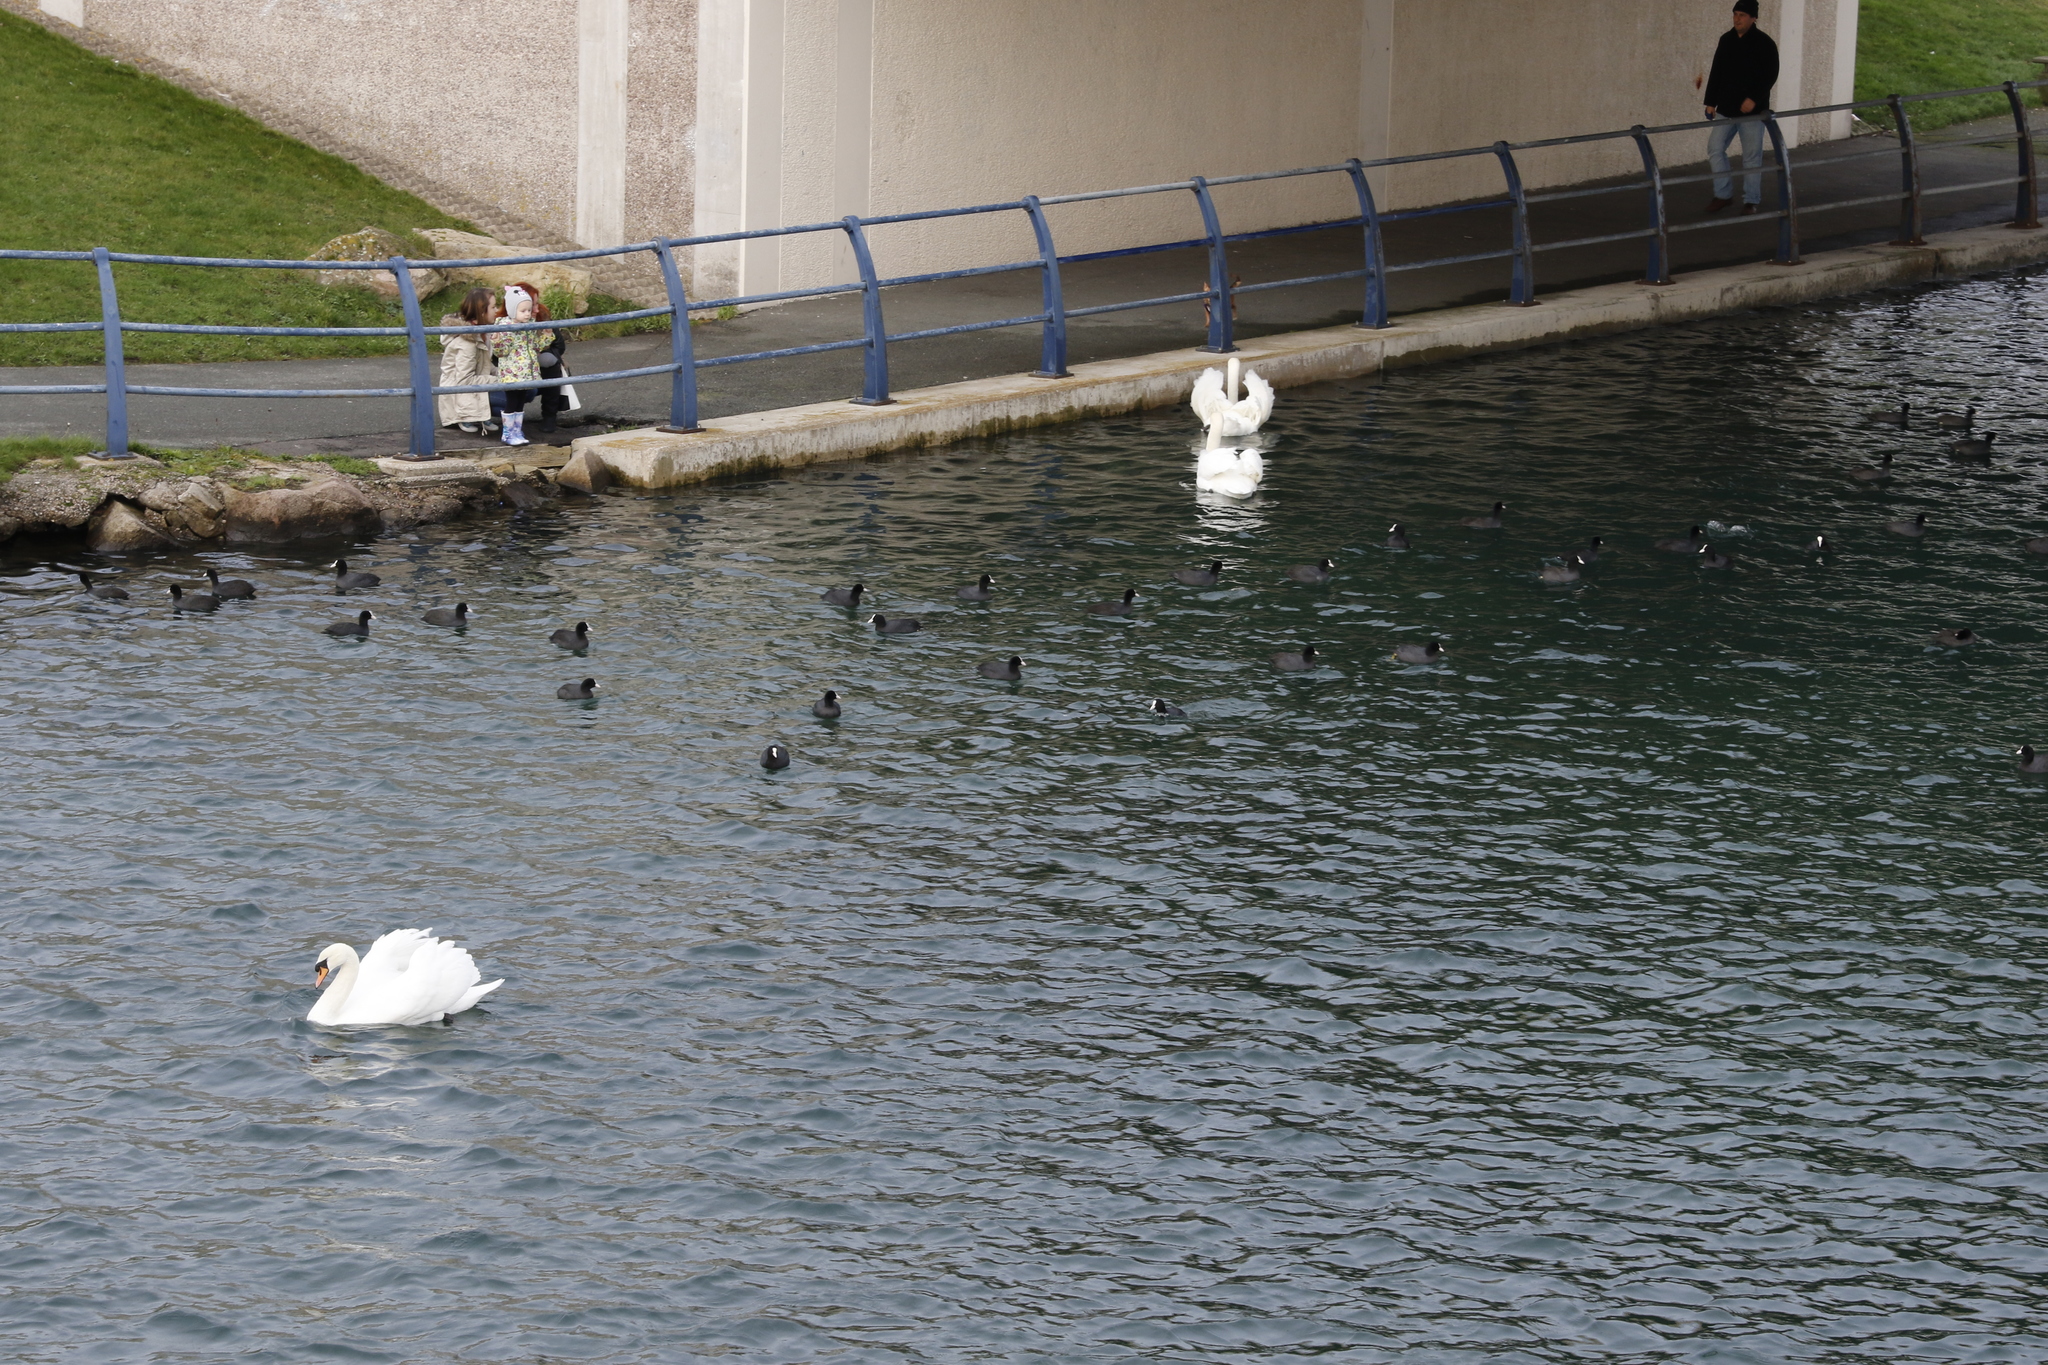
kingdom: Animalia
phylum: Chordata
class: Aves
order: Anseriformes
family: Anatidae
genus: Cygnus
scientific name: Cygnus olor
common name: Mute swan
